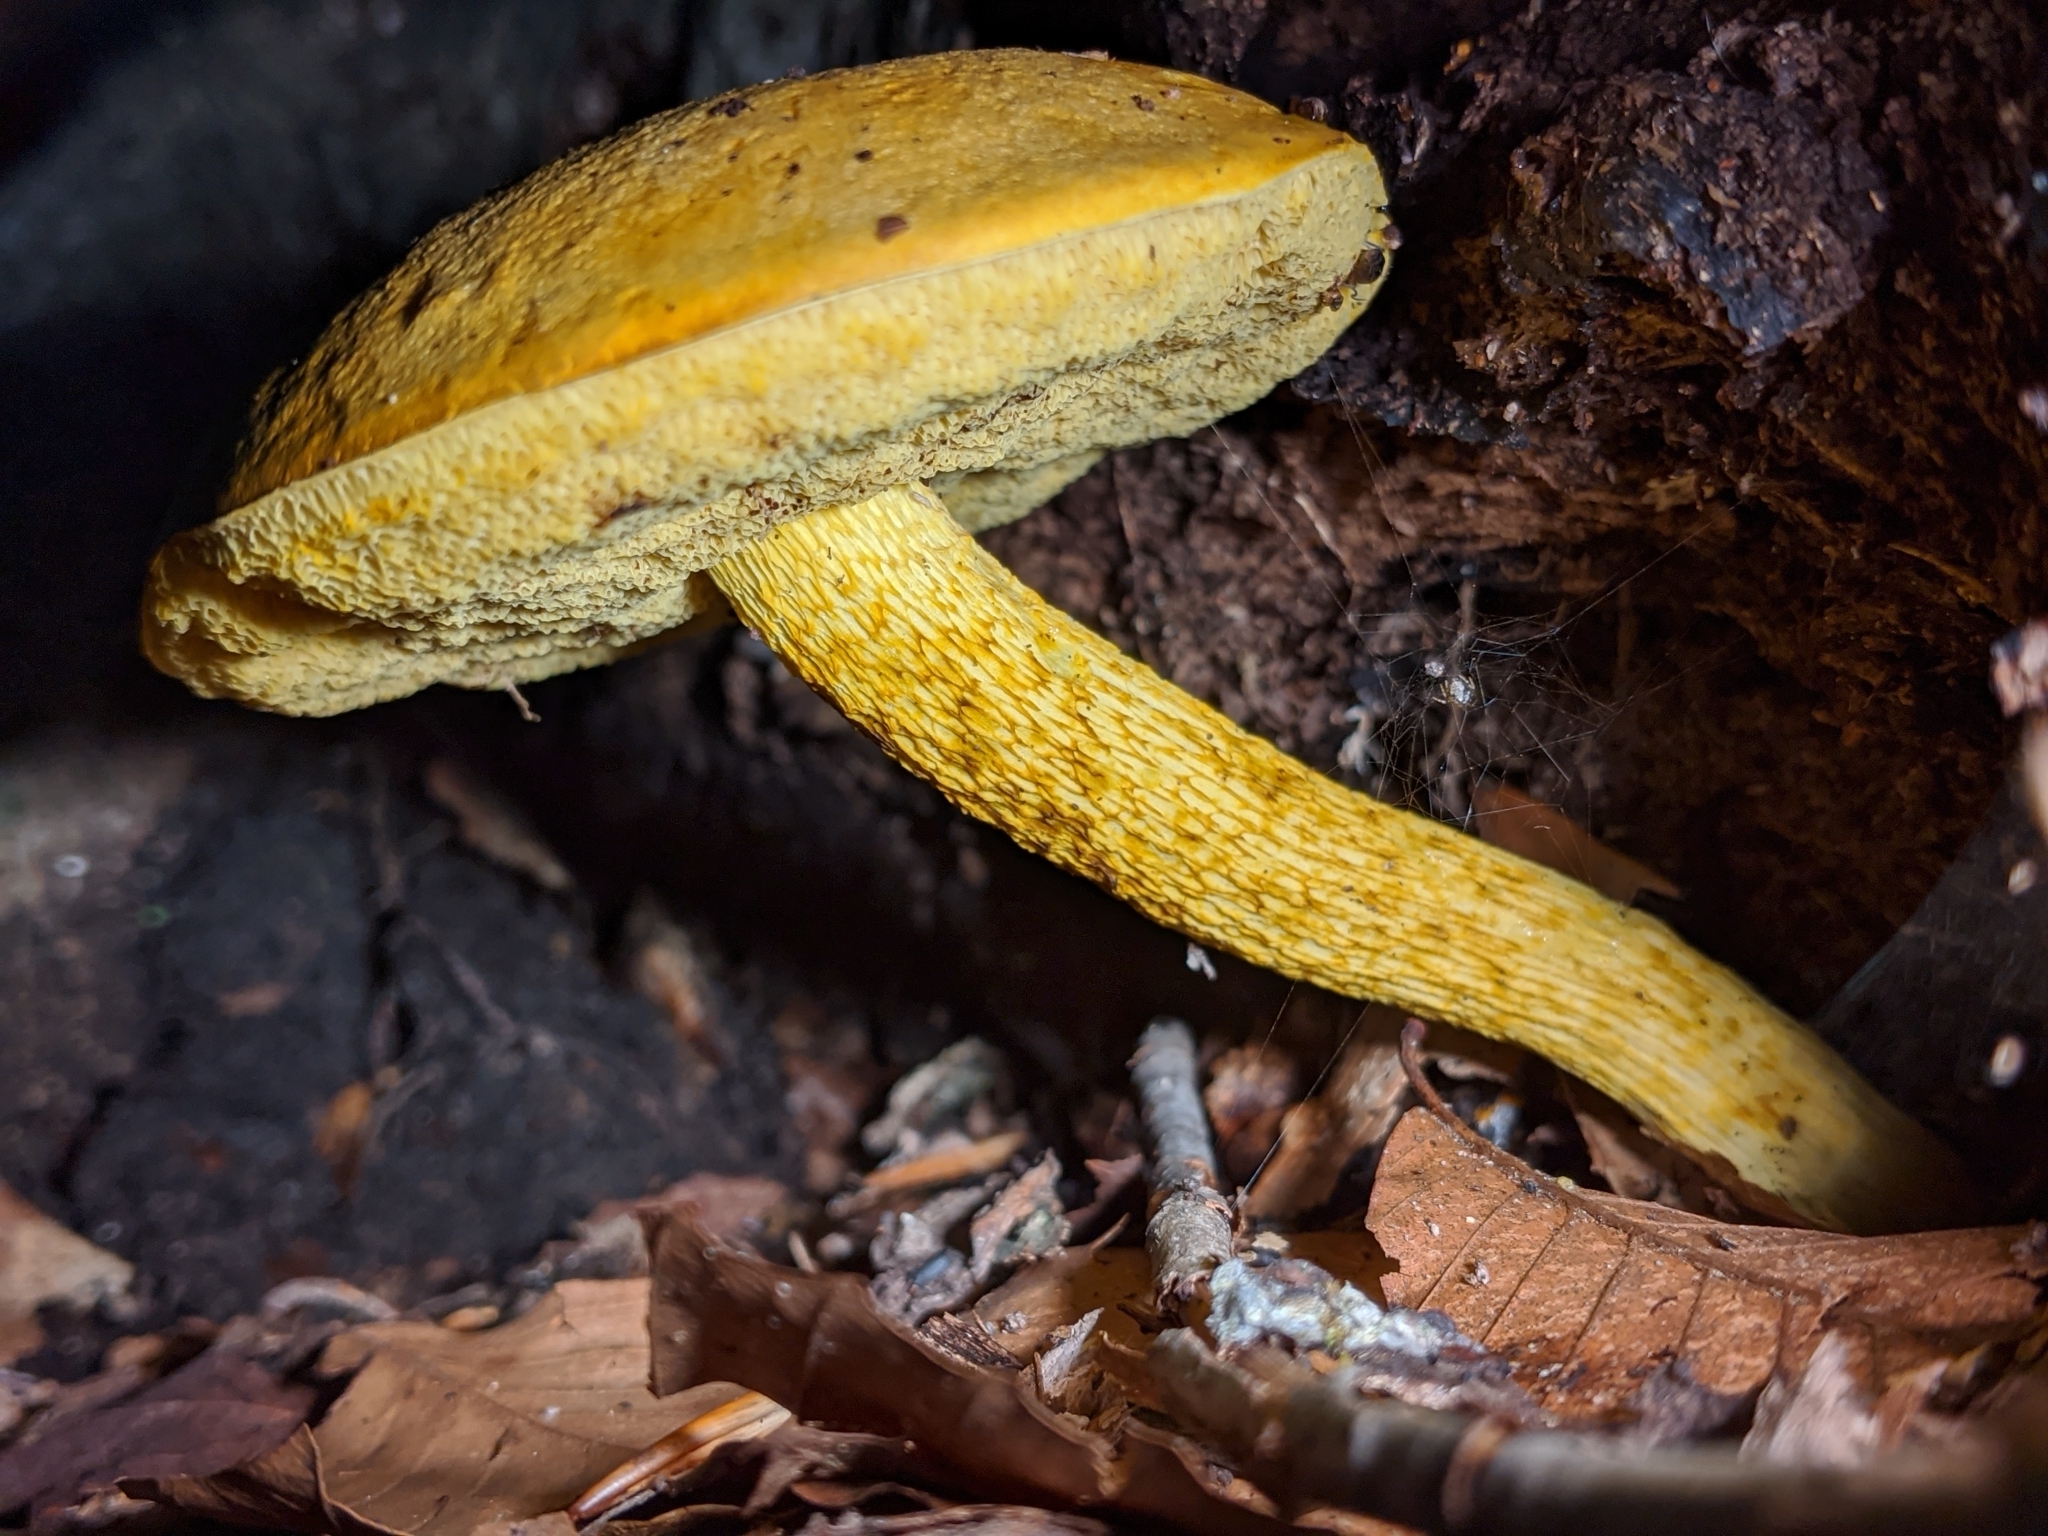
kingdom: Fungi
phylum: Basidiomycota
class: Agaricomycetes
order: Boletales
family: Boletaceae
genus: Retiboletus
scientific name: Retiboletus ornatipes
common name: Ornate-stalked bolete
